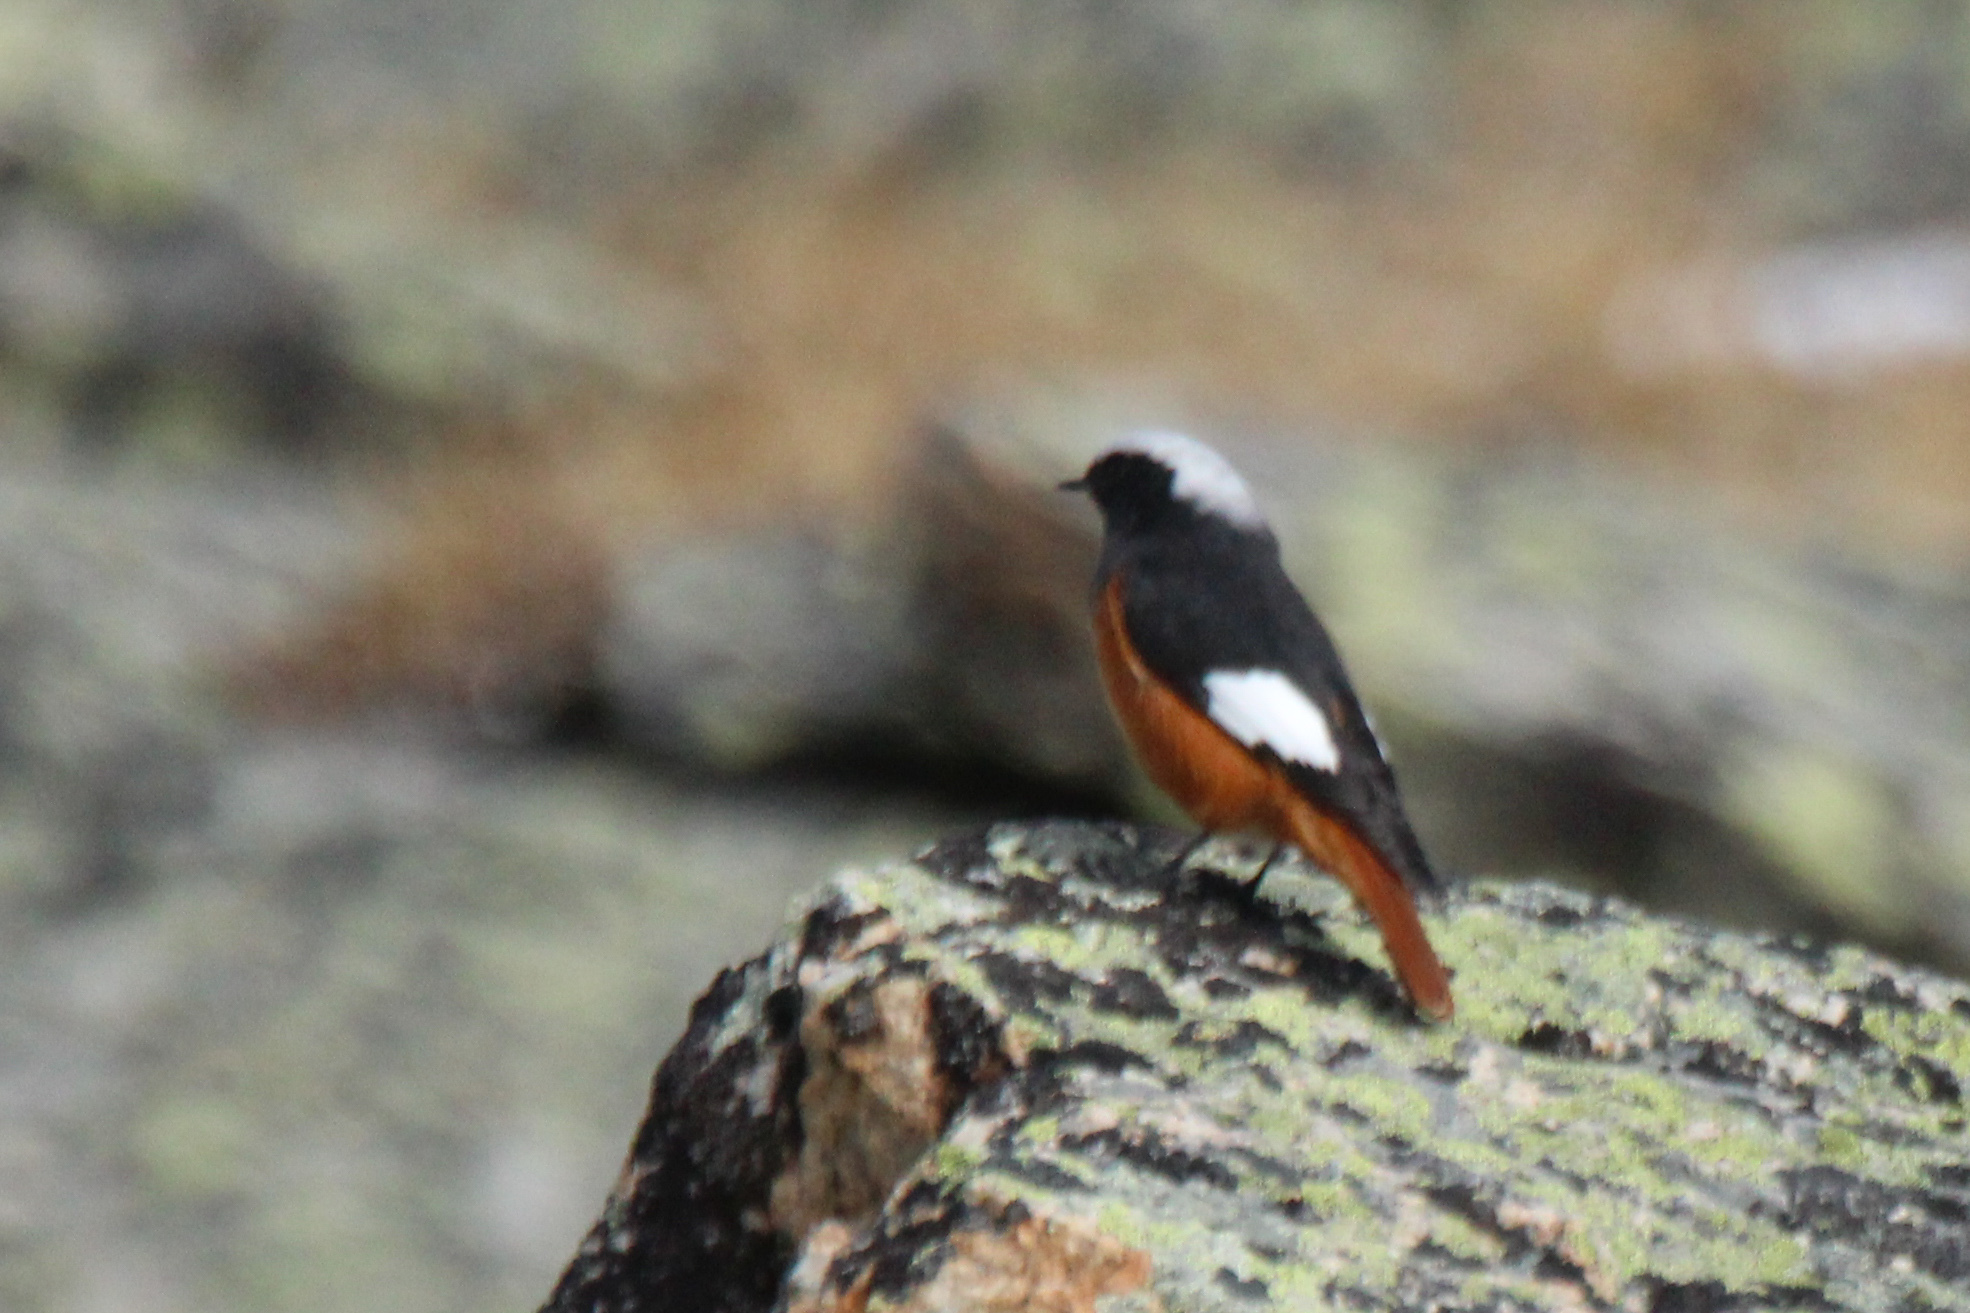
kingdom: Animalia
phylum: Chordata
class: Aves
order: Passeriformes
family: Muscicapidae
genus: Phoenicurus
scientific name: Phoenicurus erythrogastrus
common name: Güldenstädt's redstart
